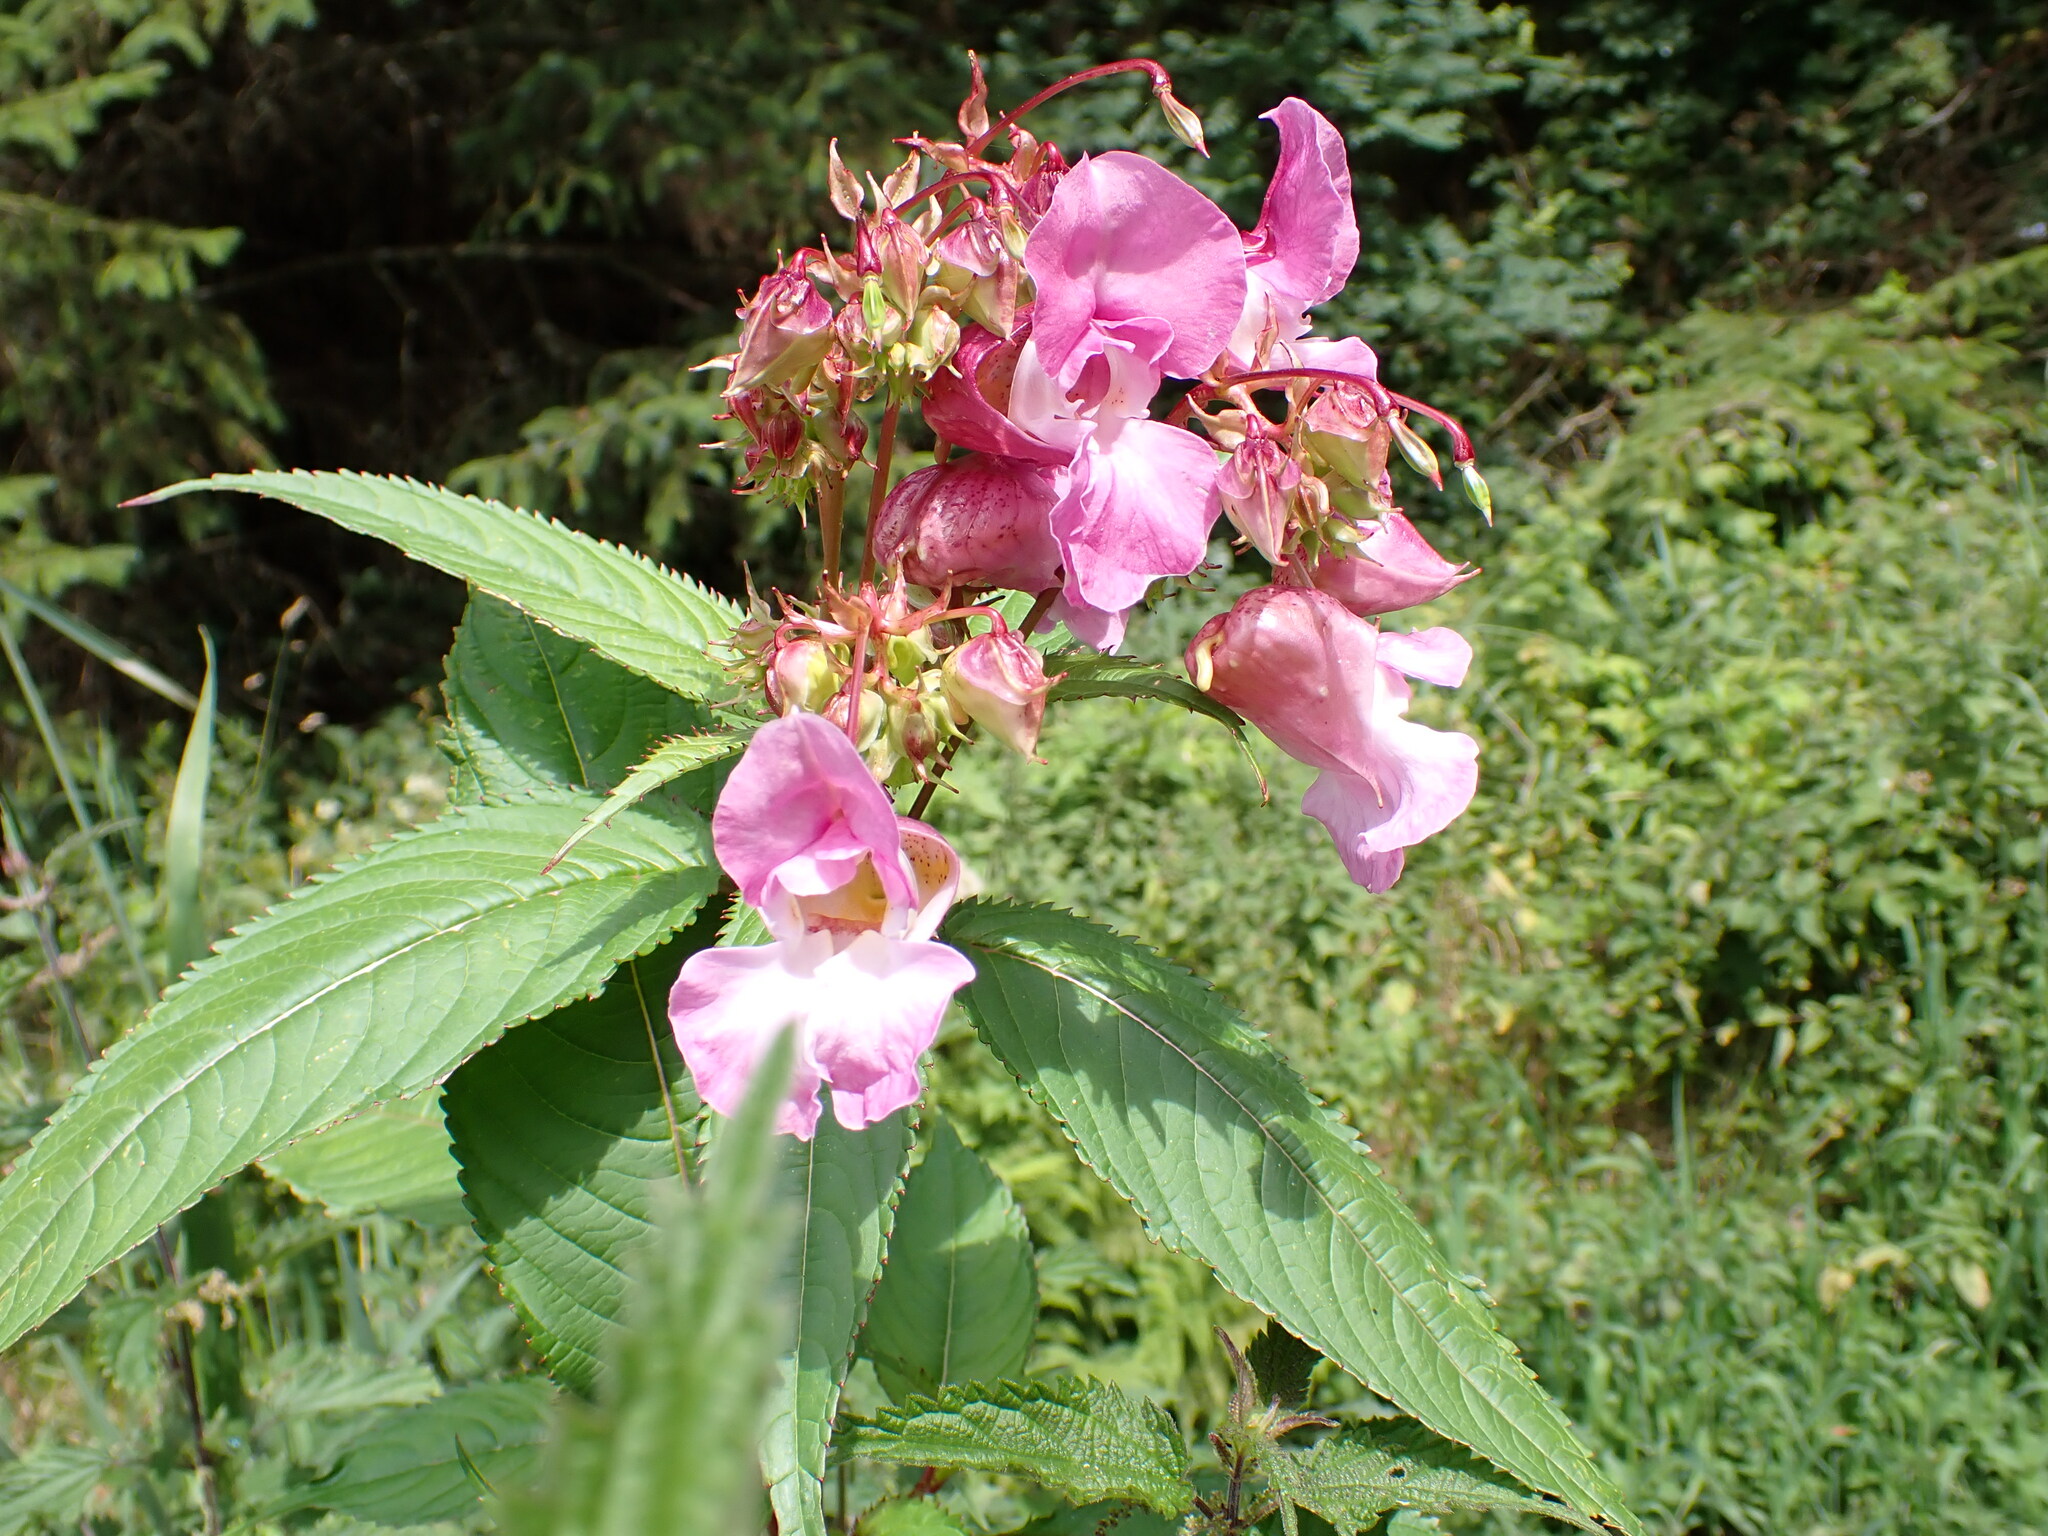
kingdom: Plantae
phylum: Tracheophyta
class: Magnoliopsida
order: Ericales
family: Balsaminaceae
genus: Impatiens
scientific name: Impatiens glandulifera
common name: Himalayan balsam
